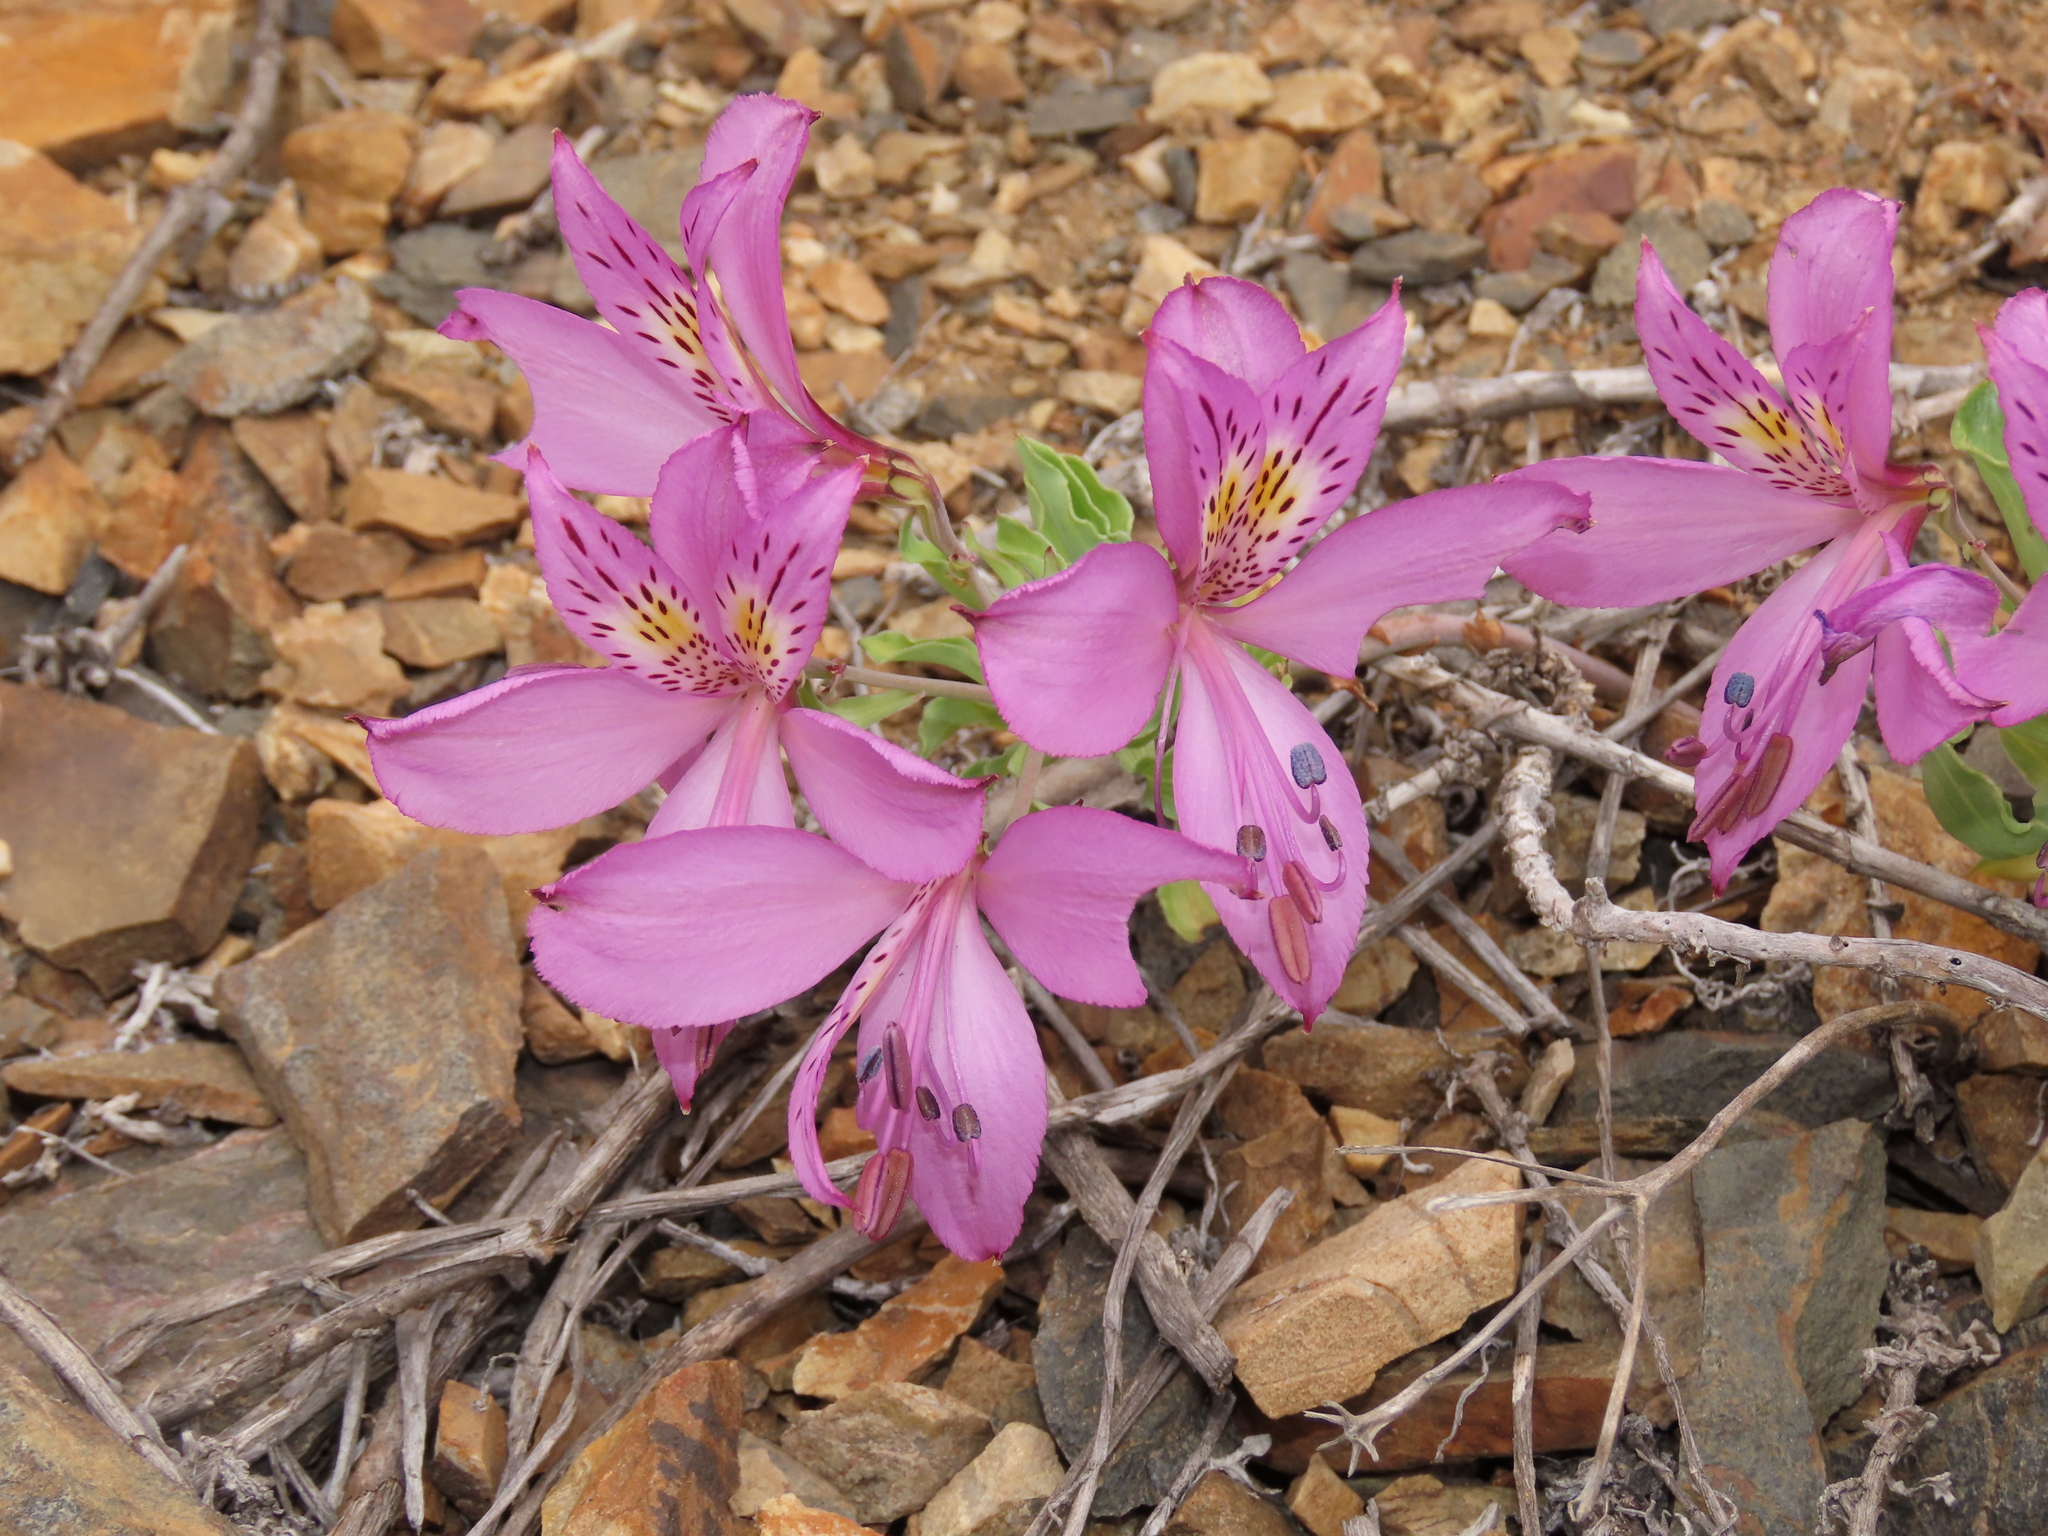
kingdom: Plantae
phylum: Tracheophyta
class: Liliopsida
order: Liliales
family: Alstroemeriaceae
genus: Alstroemeria
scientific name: Alstroemeria violacea
